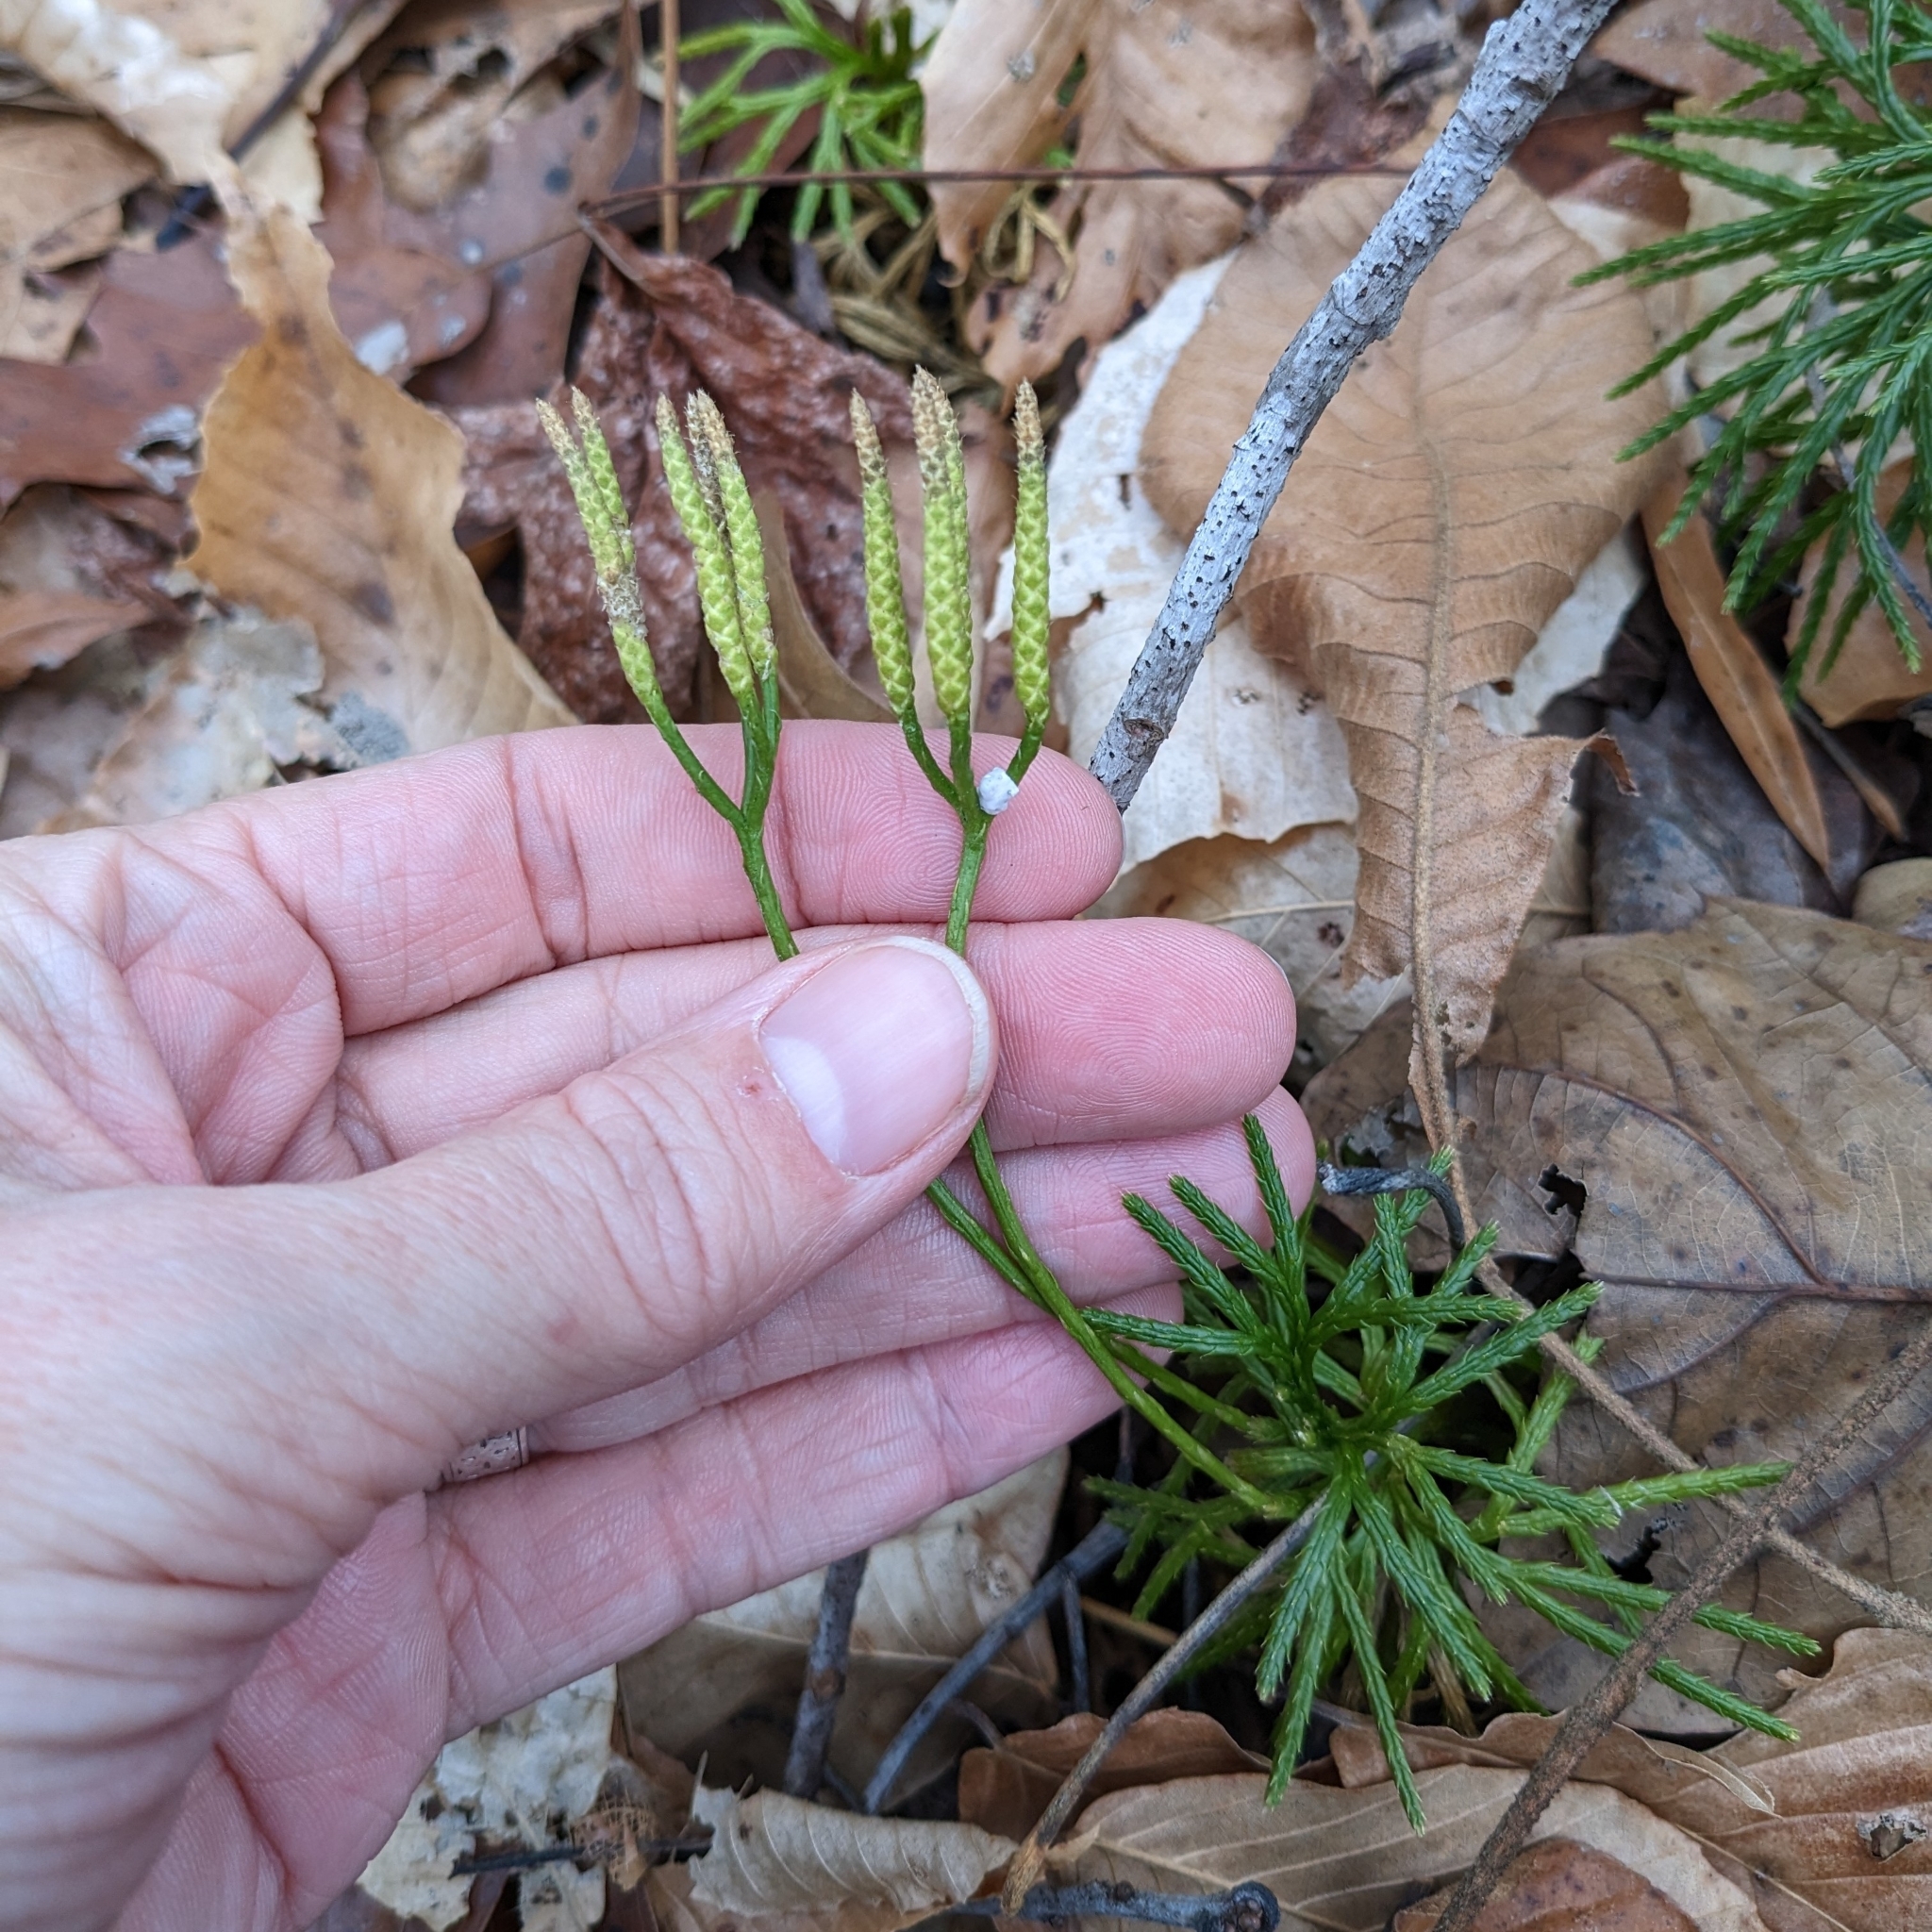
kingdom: Plantae
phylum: Tracheophyta
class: Lycopodiopsida
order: Lycopodiales
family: Lycopodiaceae
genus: Diphasiastrum
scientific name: Diphasiastrum digitatum
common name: Southern running-pine
